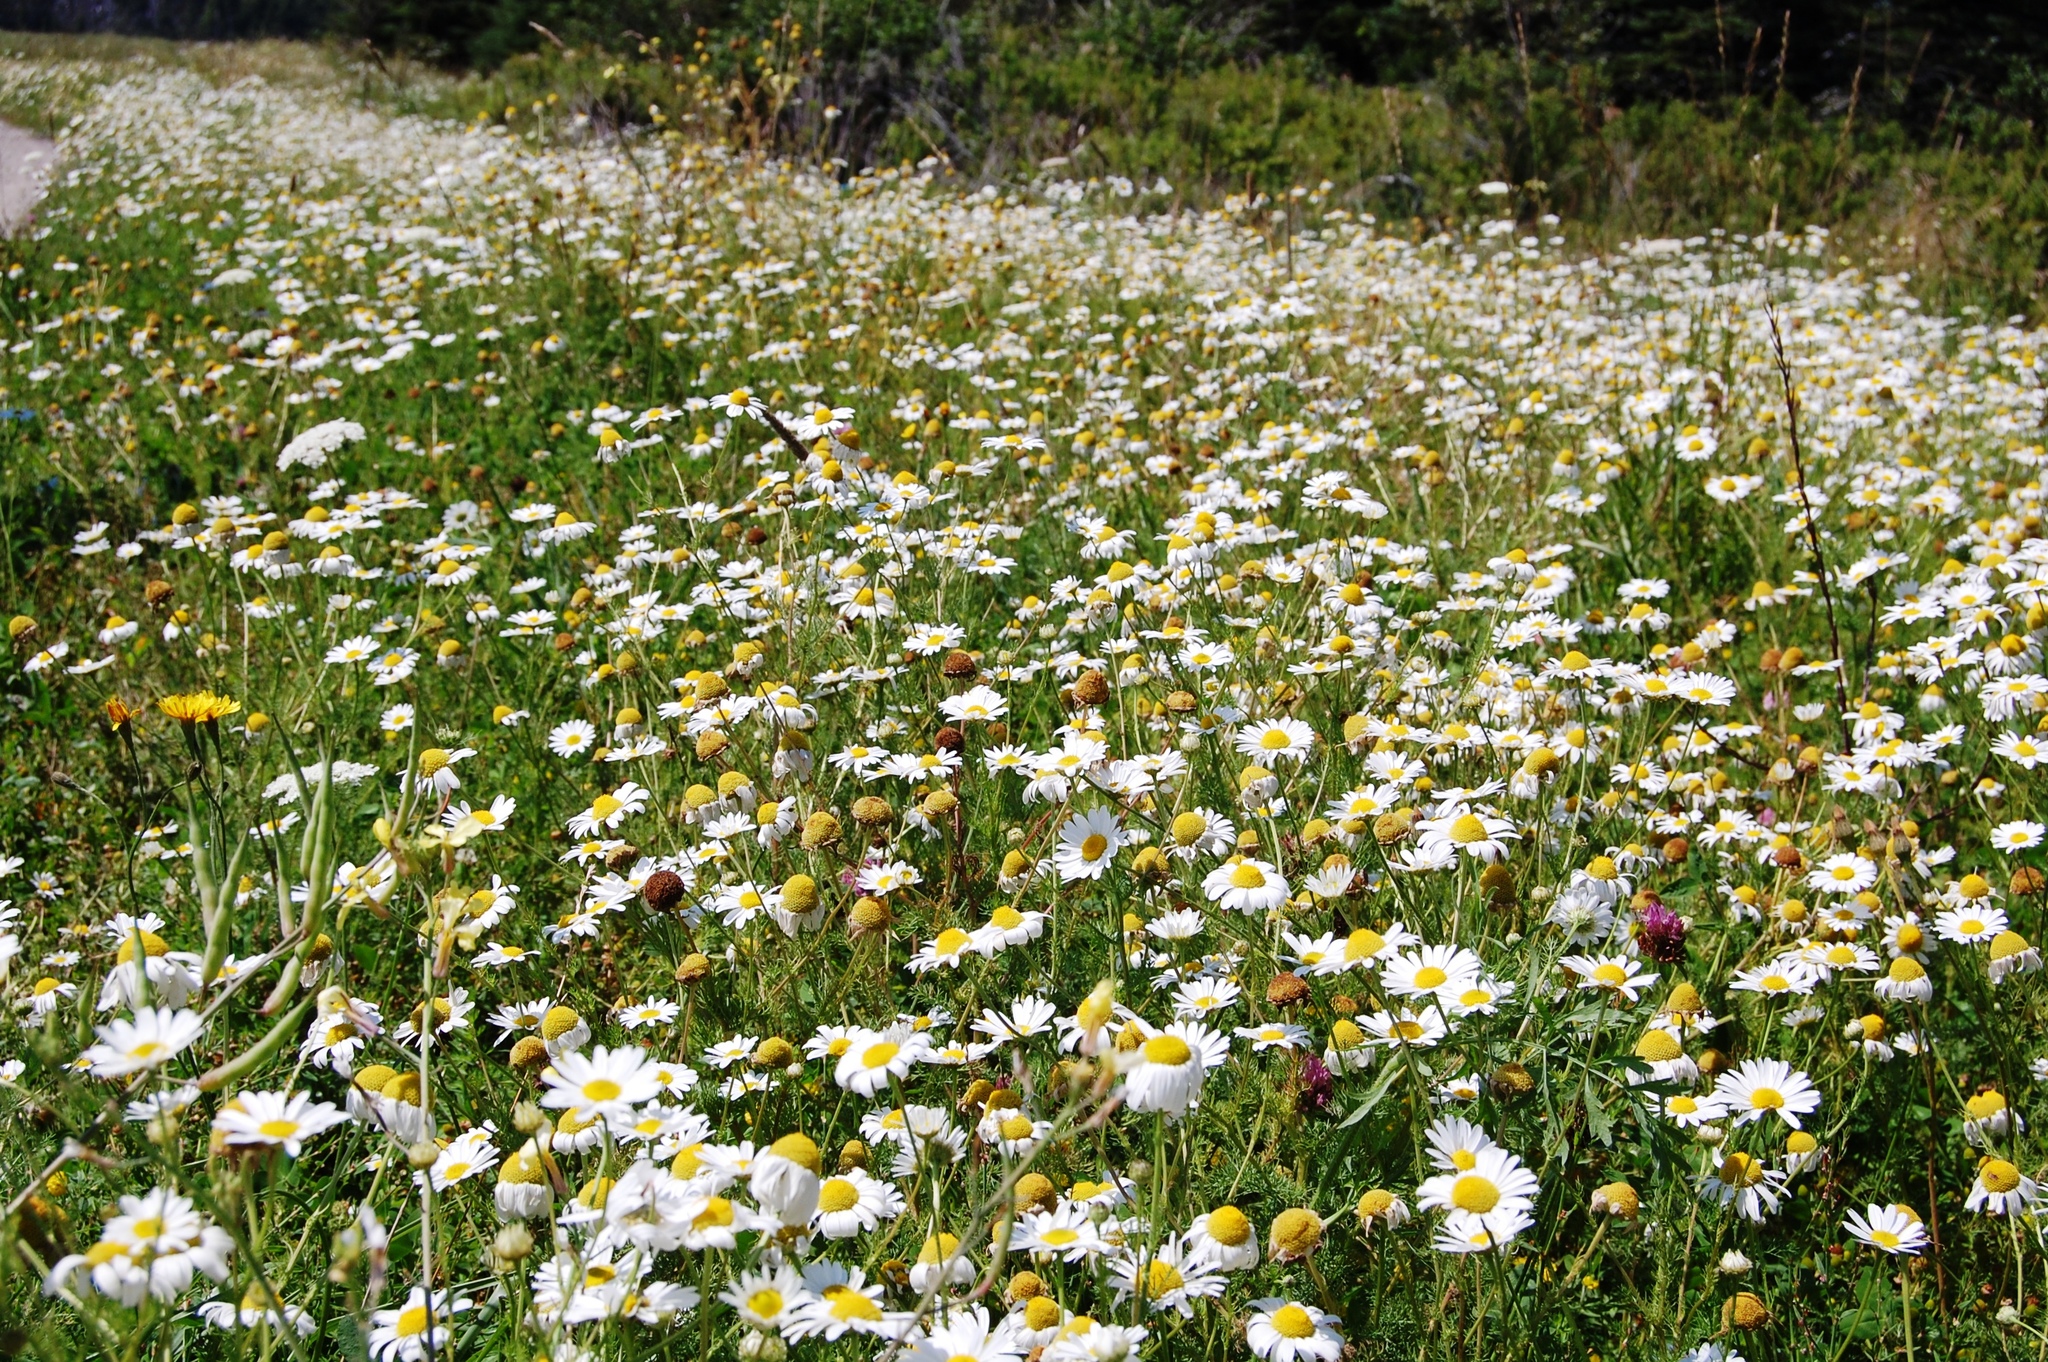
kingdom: Plantae
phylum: Tracheophyta
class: Magnoliopsida
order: Asterales
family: Asteraceae
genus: Anthemis
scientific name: Anthemis arvensis
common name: Corn chamomile
